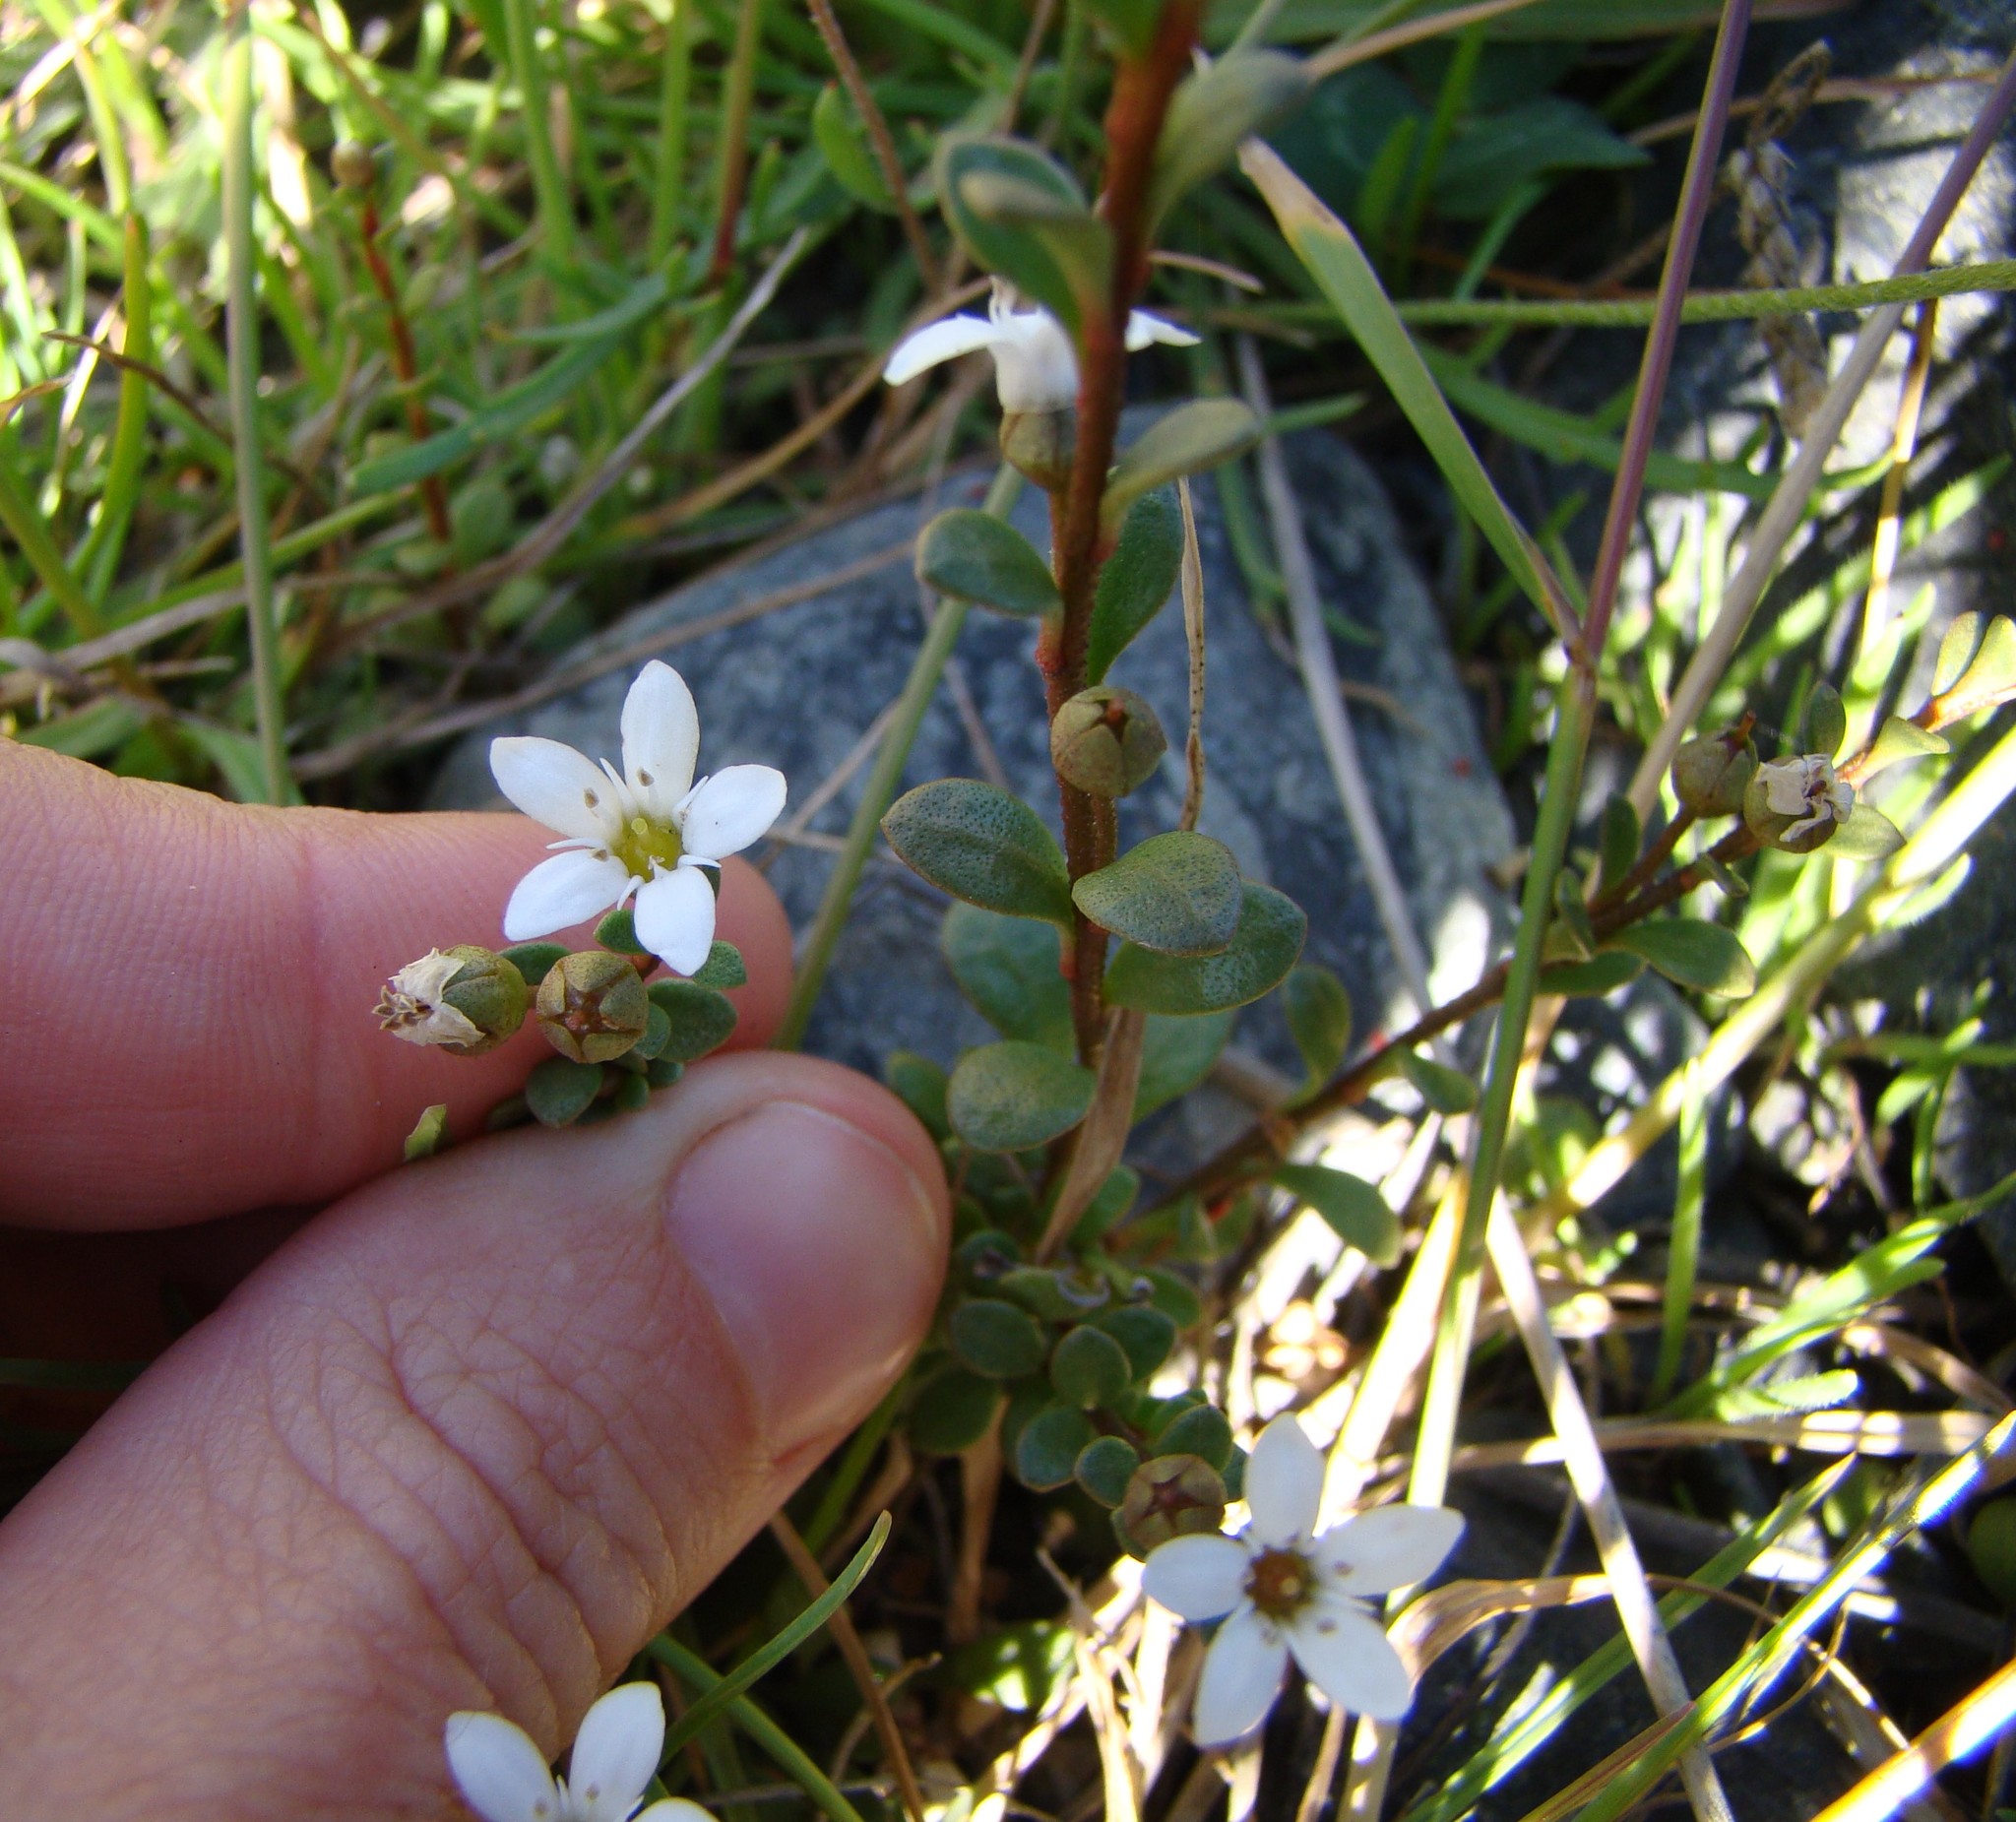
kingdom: Plantae
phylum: Tracheophyta
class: Magnoliopsida
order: Ericales
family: Primulaceae
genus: Samolus
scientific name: Samolus repens
